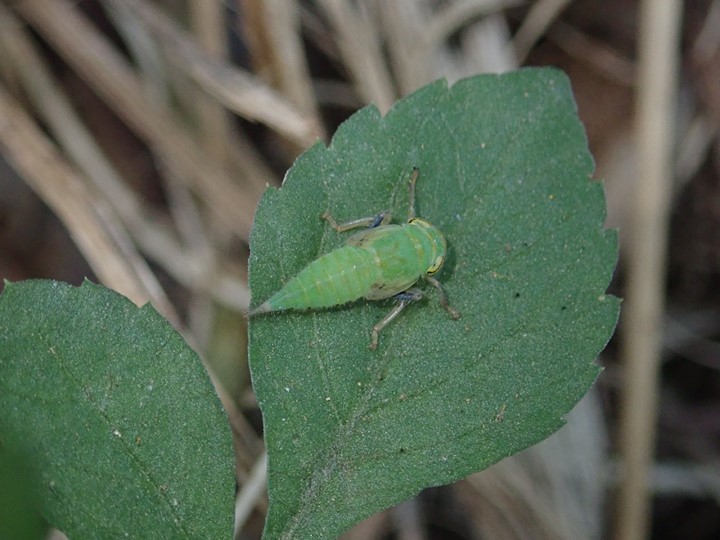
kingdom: Animalia
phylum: Arthropoda
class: Insecta
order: Hemiptera
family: Cicadellidae
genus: Tartessus
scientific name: Tartessus ferrugineus
